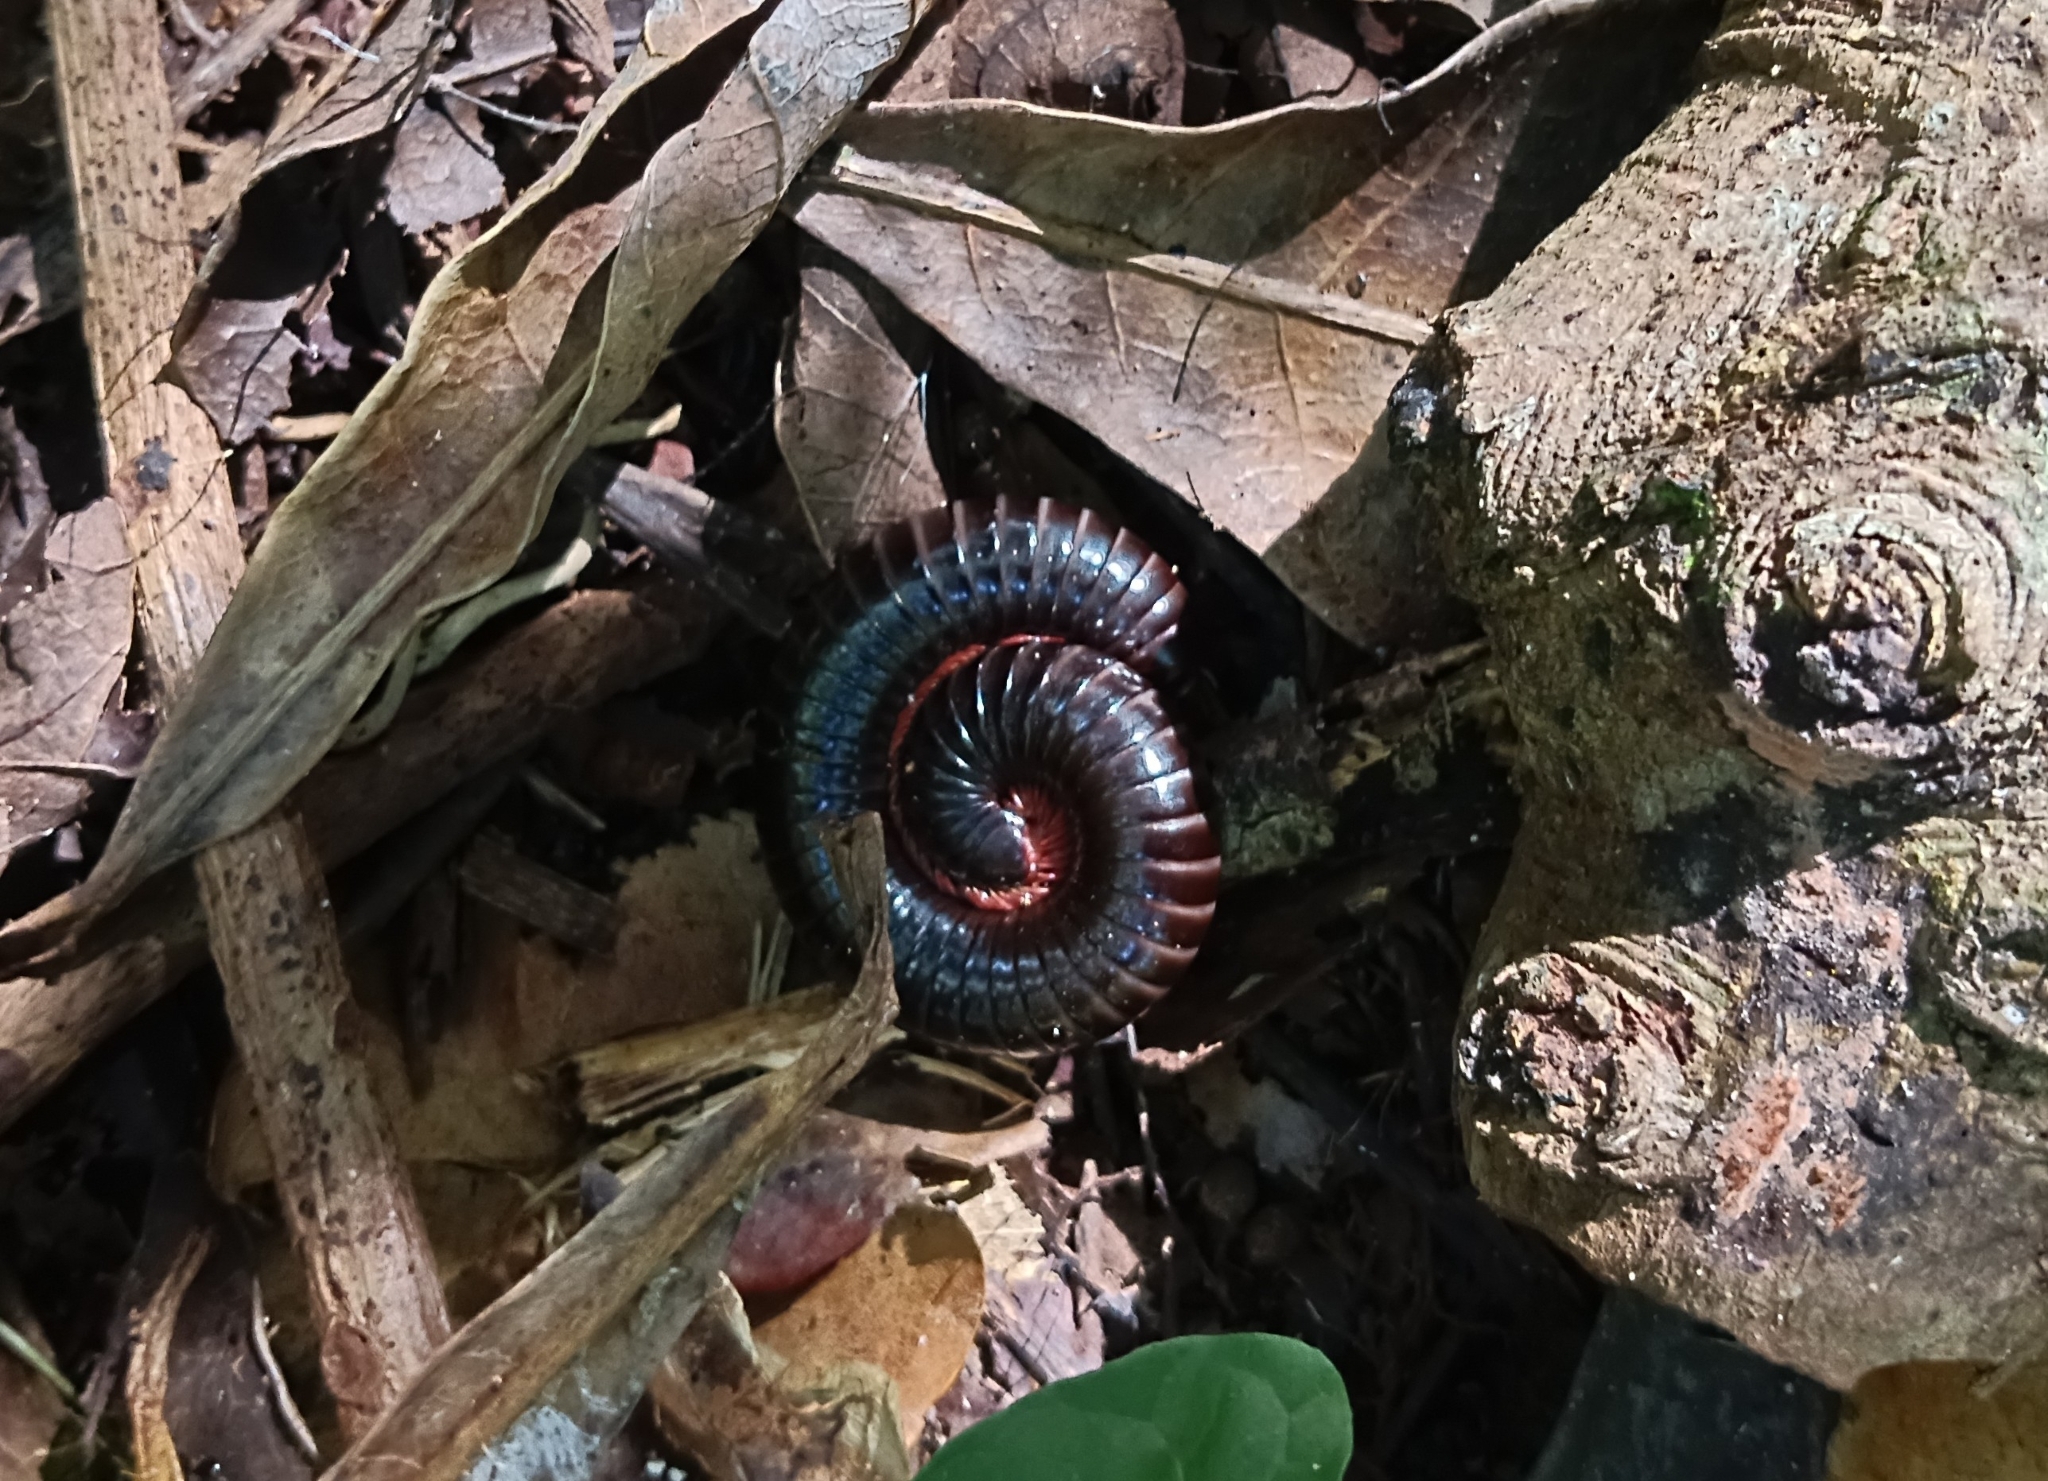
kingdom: Animalia
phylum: Arthropoda
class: Diplopoda
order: Spirostreptida
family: Harpagophoridae
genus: Phyllogonostreptus
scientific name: Phyllogonostreptus nigrolabiatus
